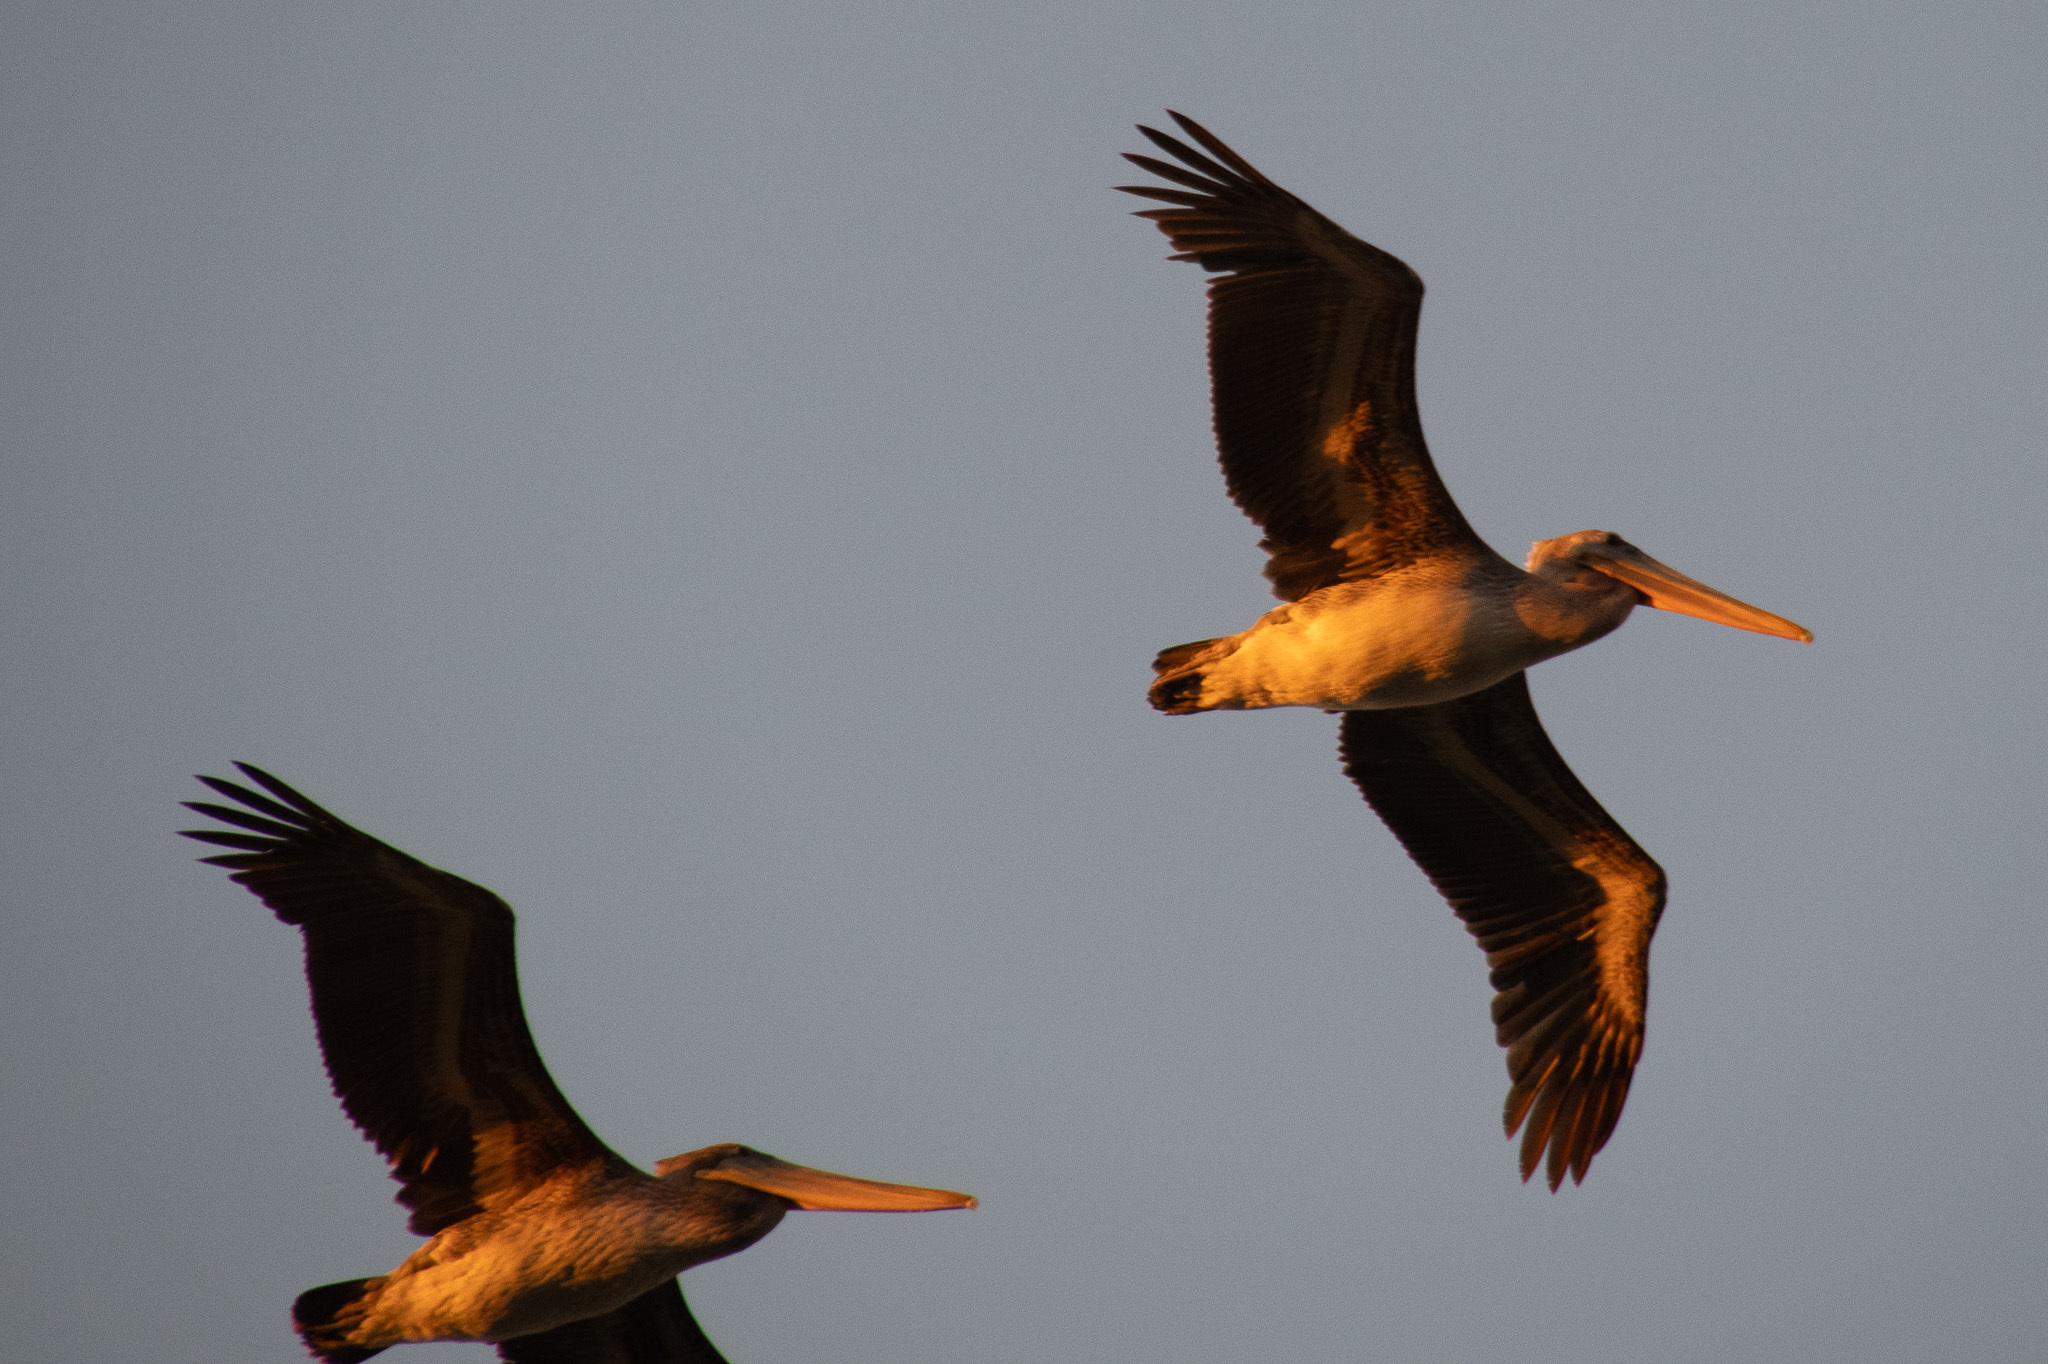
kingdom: Animalia
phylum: Chordata
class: Aves
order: Pelecaniformes
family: Pelecanidae
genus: Pelecanus
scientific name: Pelecanus occidentalis
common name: Brown pelican
